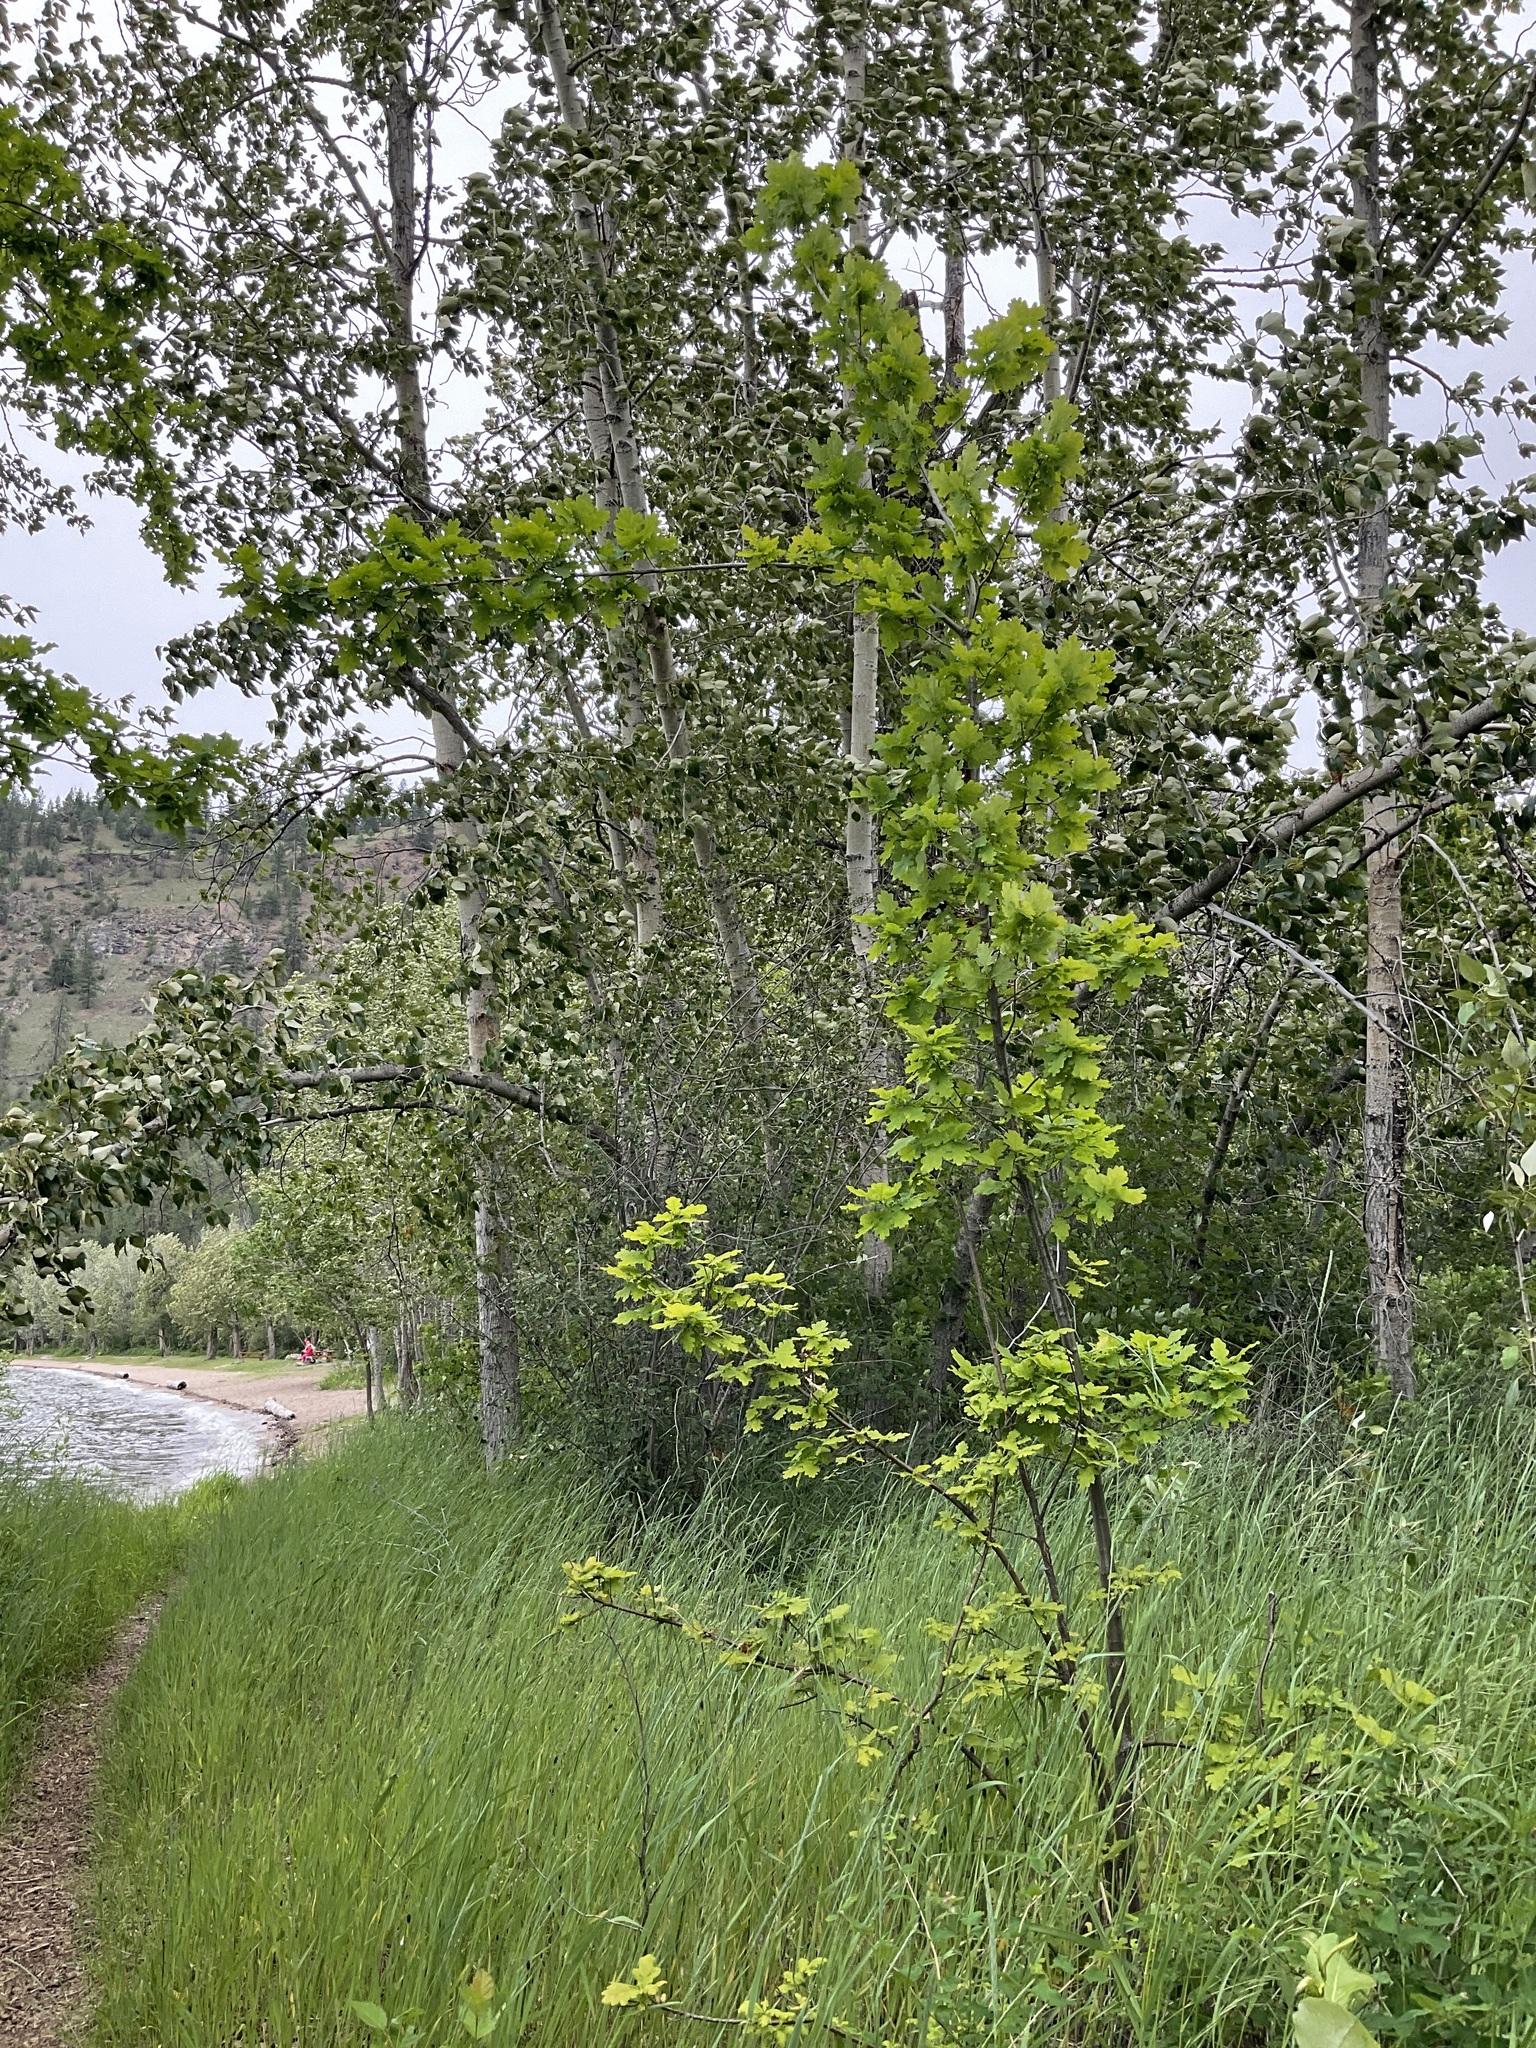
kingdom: Plantae
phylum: Tracheophyta
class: Magnoliopsida
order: Fagales
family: Fagaceae
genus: Quercus
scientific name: Quercus robur
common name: Pedunculate oak
